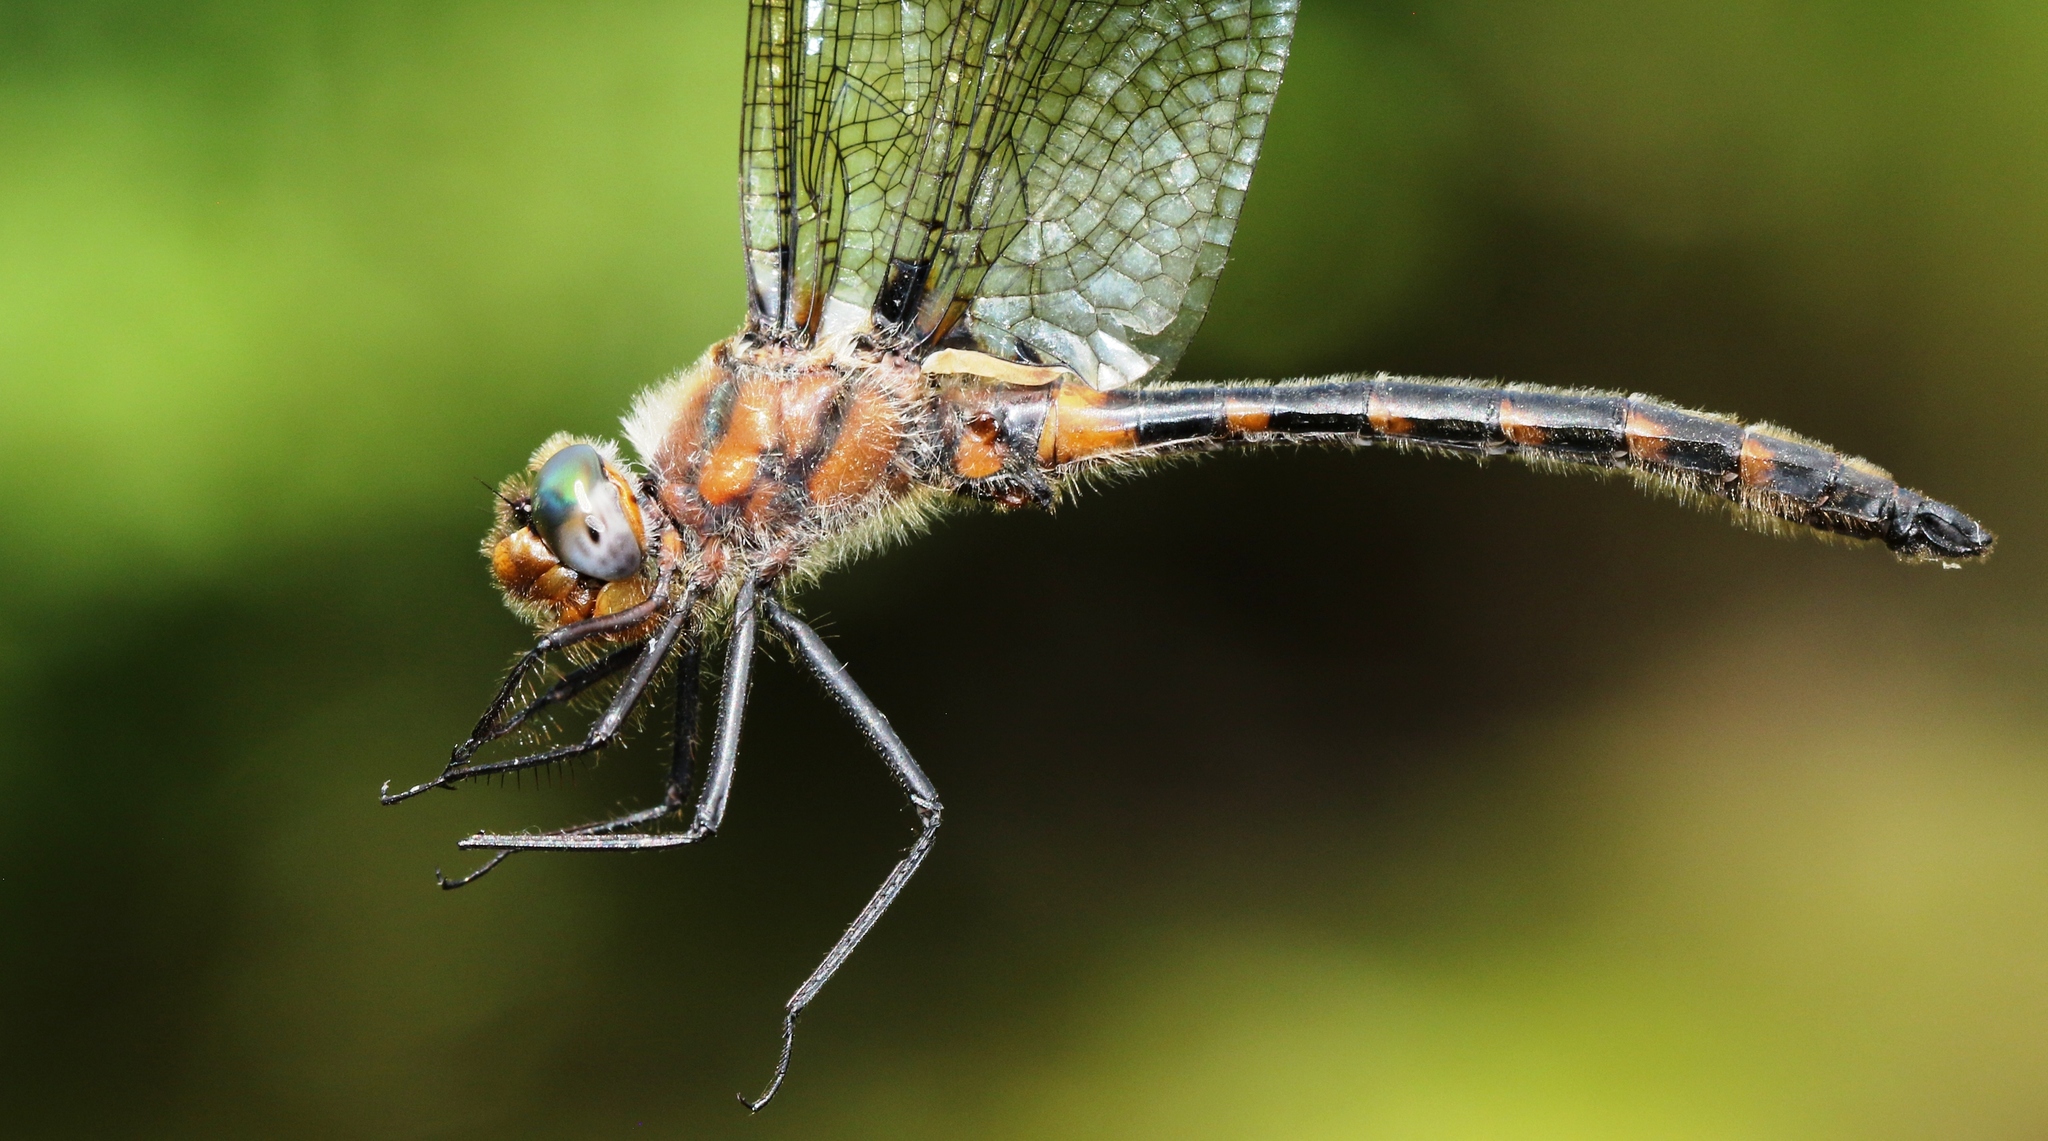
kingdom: Animalia
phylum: Arthropoda
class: Insecta
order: Odonata
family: Corduliidae
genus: Helocordulia
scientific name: Helocordulia uhleri
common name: Uhler's sundragon
